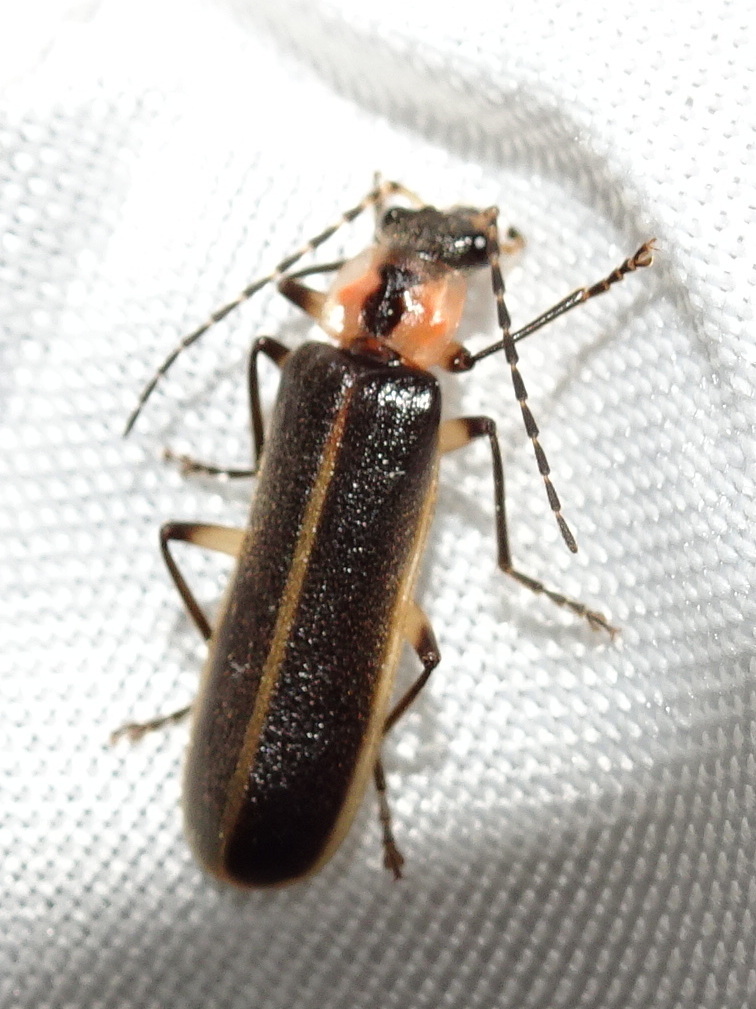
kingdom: Animalia
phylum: Arthropoda
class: Insecta
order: Coleoptera
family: Cantharidae
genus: Podabrus
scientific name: Podabrus basilaris
